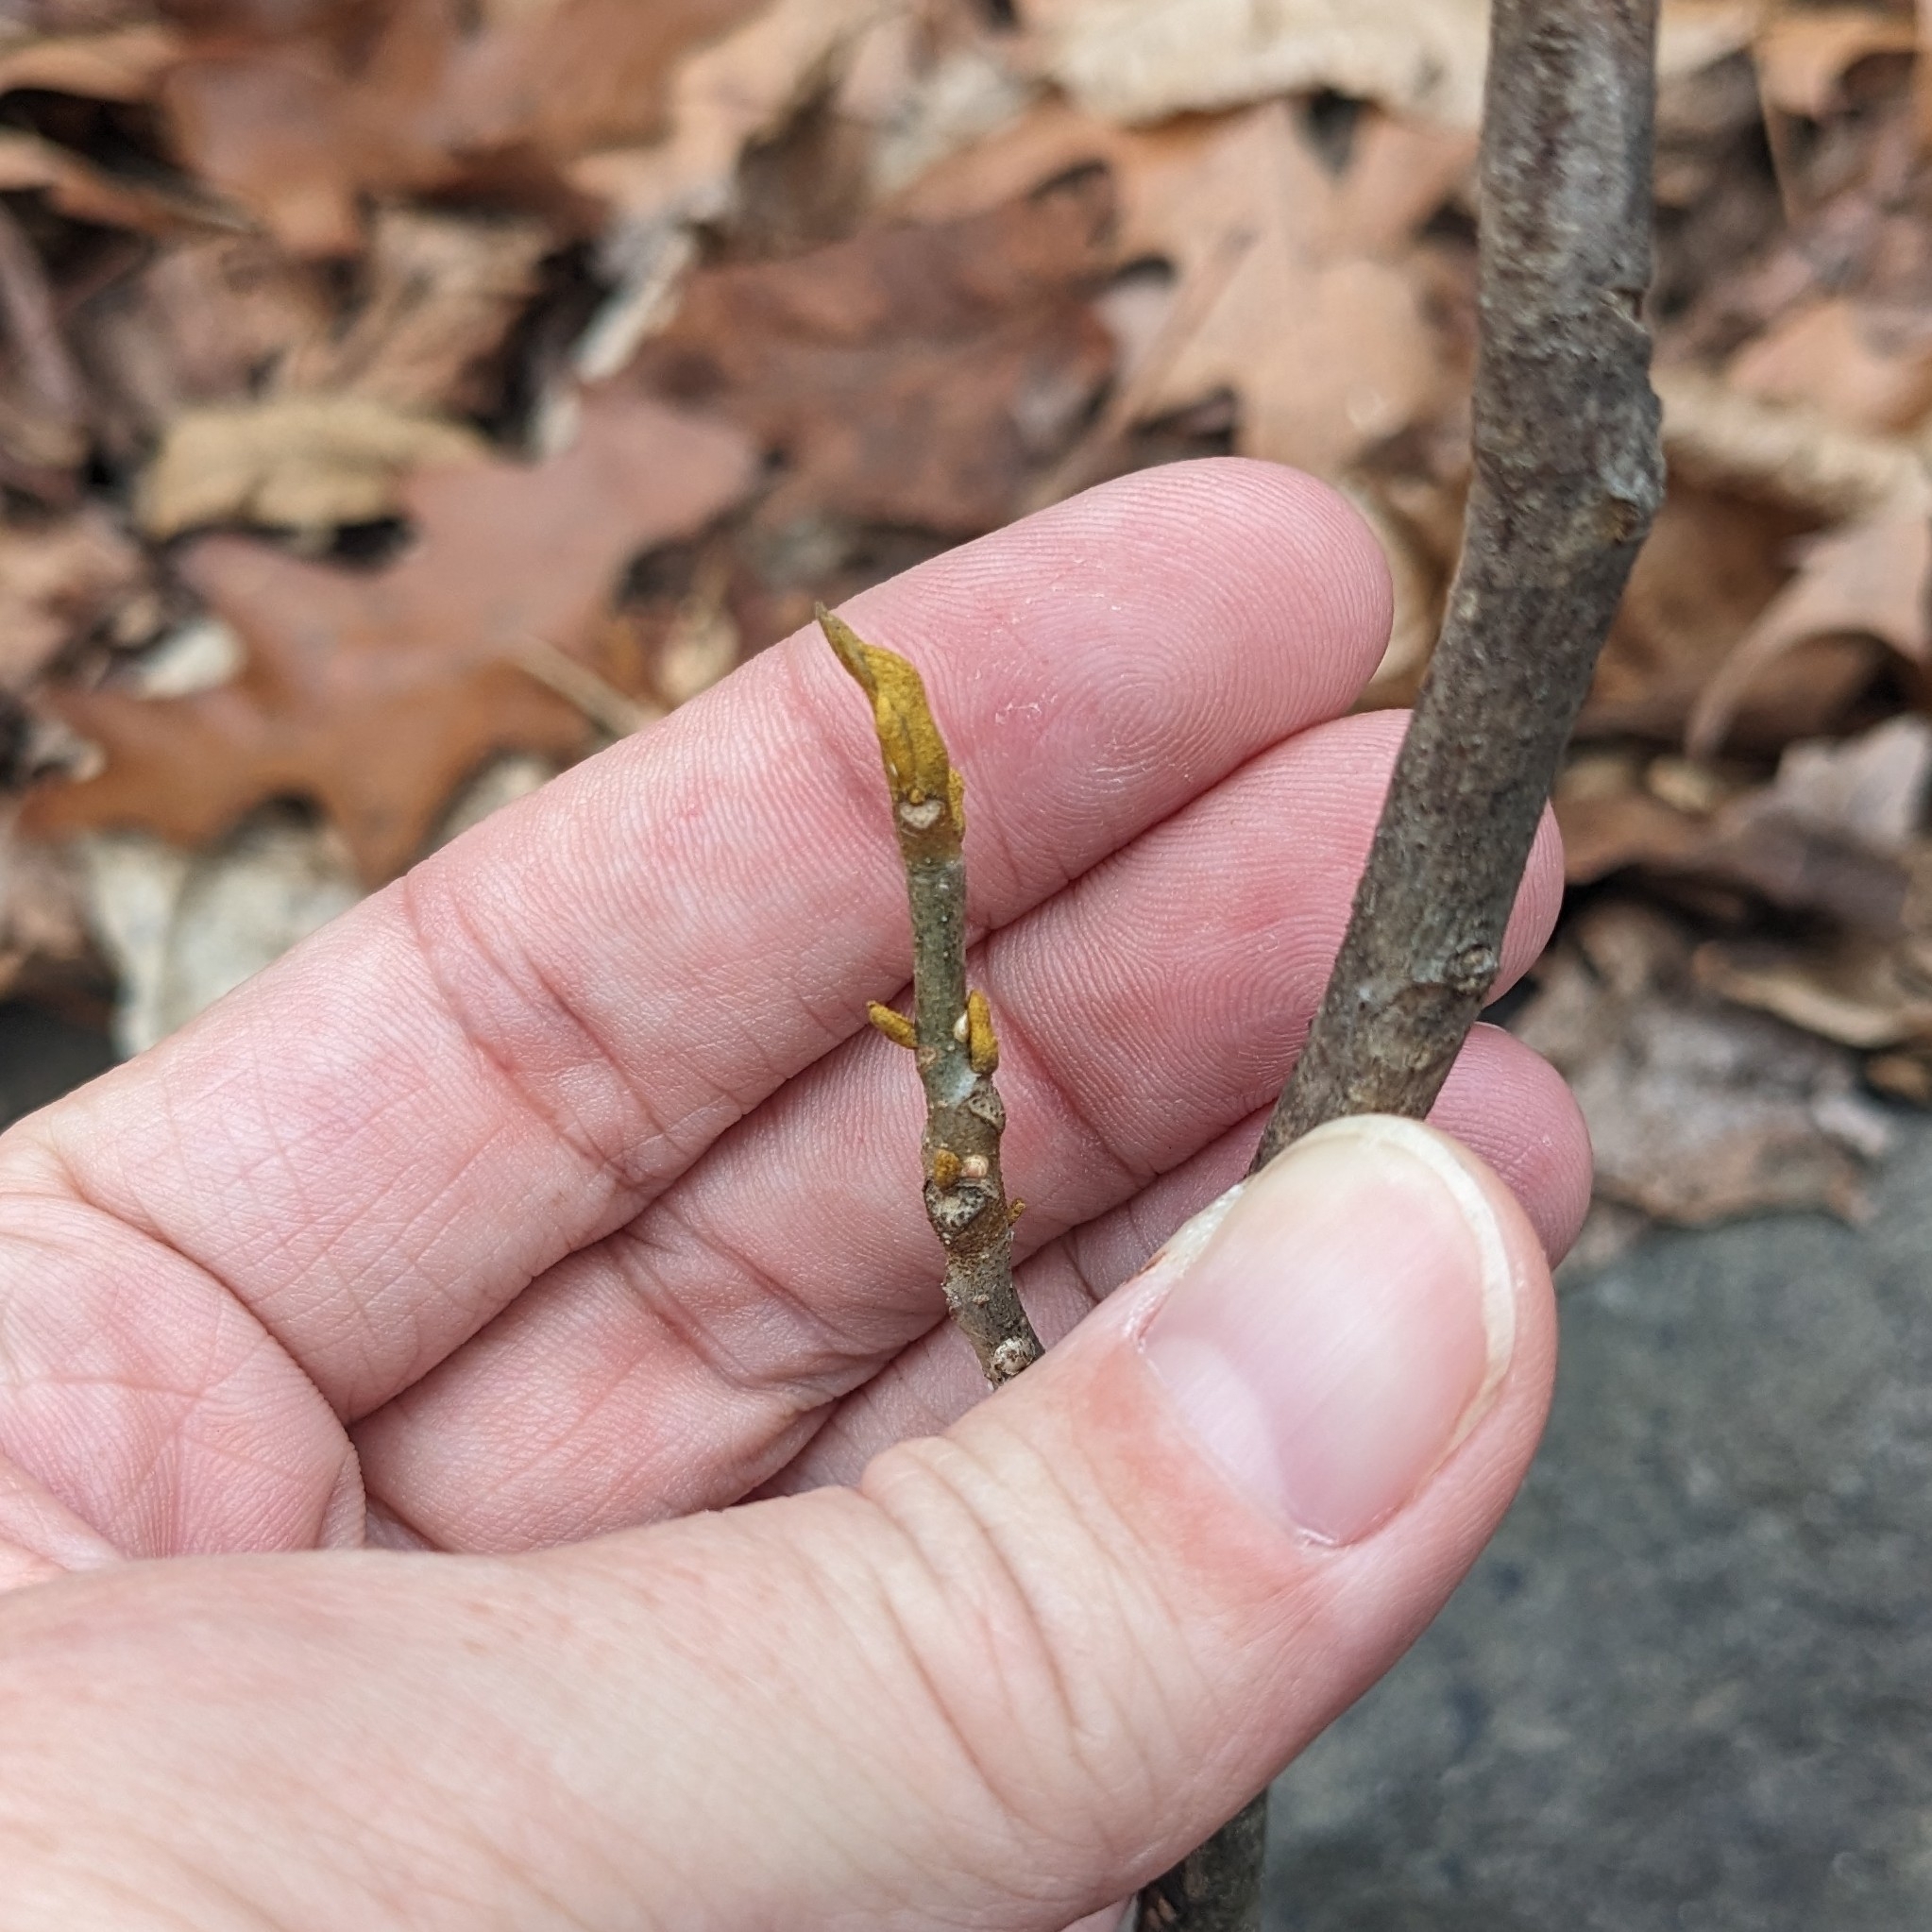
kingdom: Plantae
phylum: Tracheophyta
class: Magnoliopsida
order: Fagales
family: Juglandaceae
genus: Carya
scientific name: Carya cordiformis
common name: Bitternut hickory
